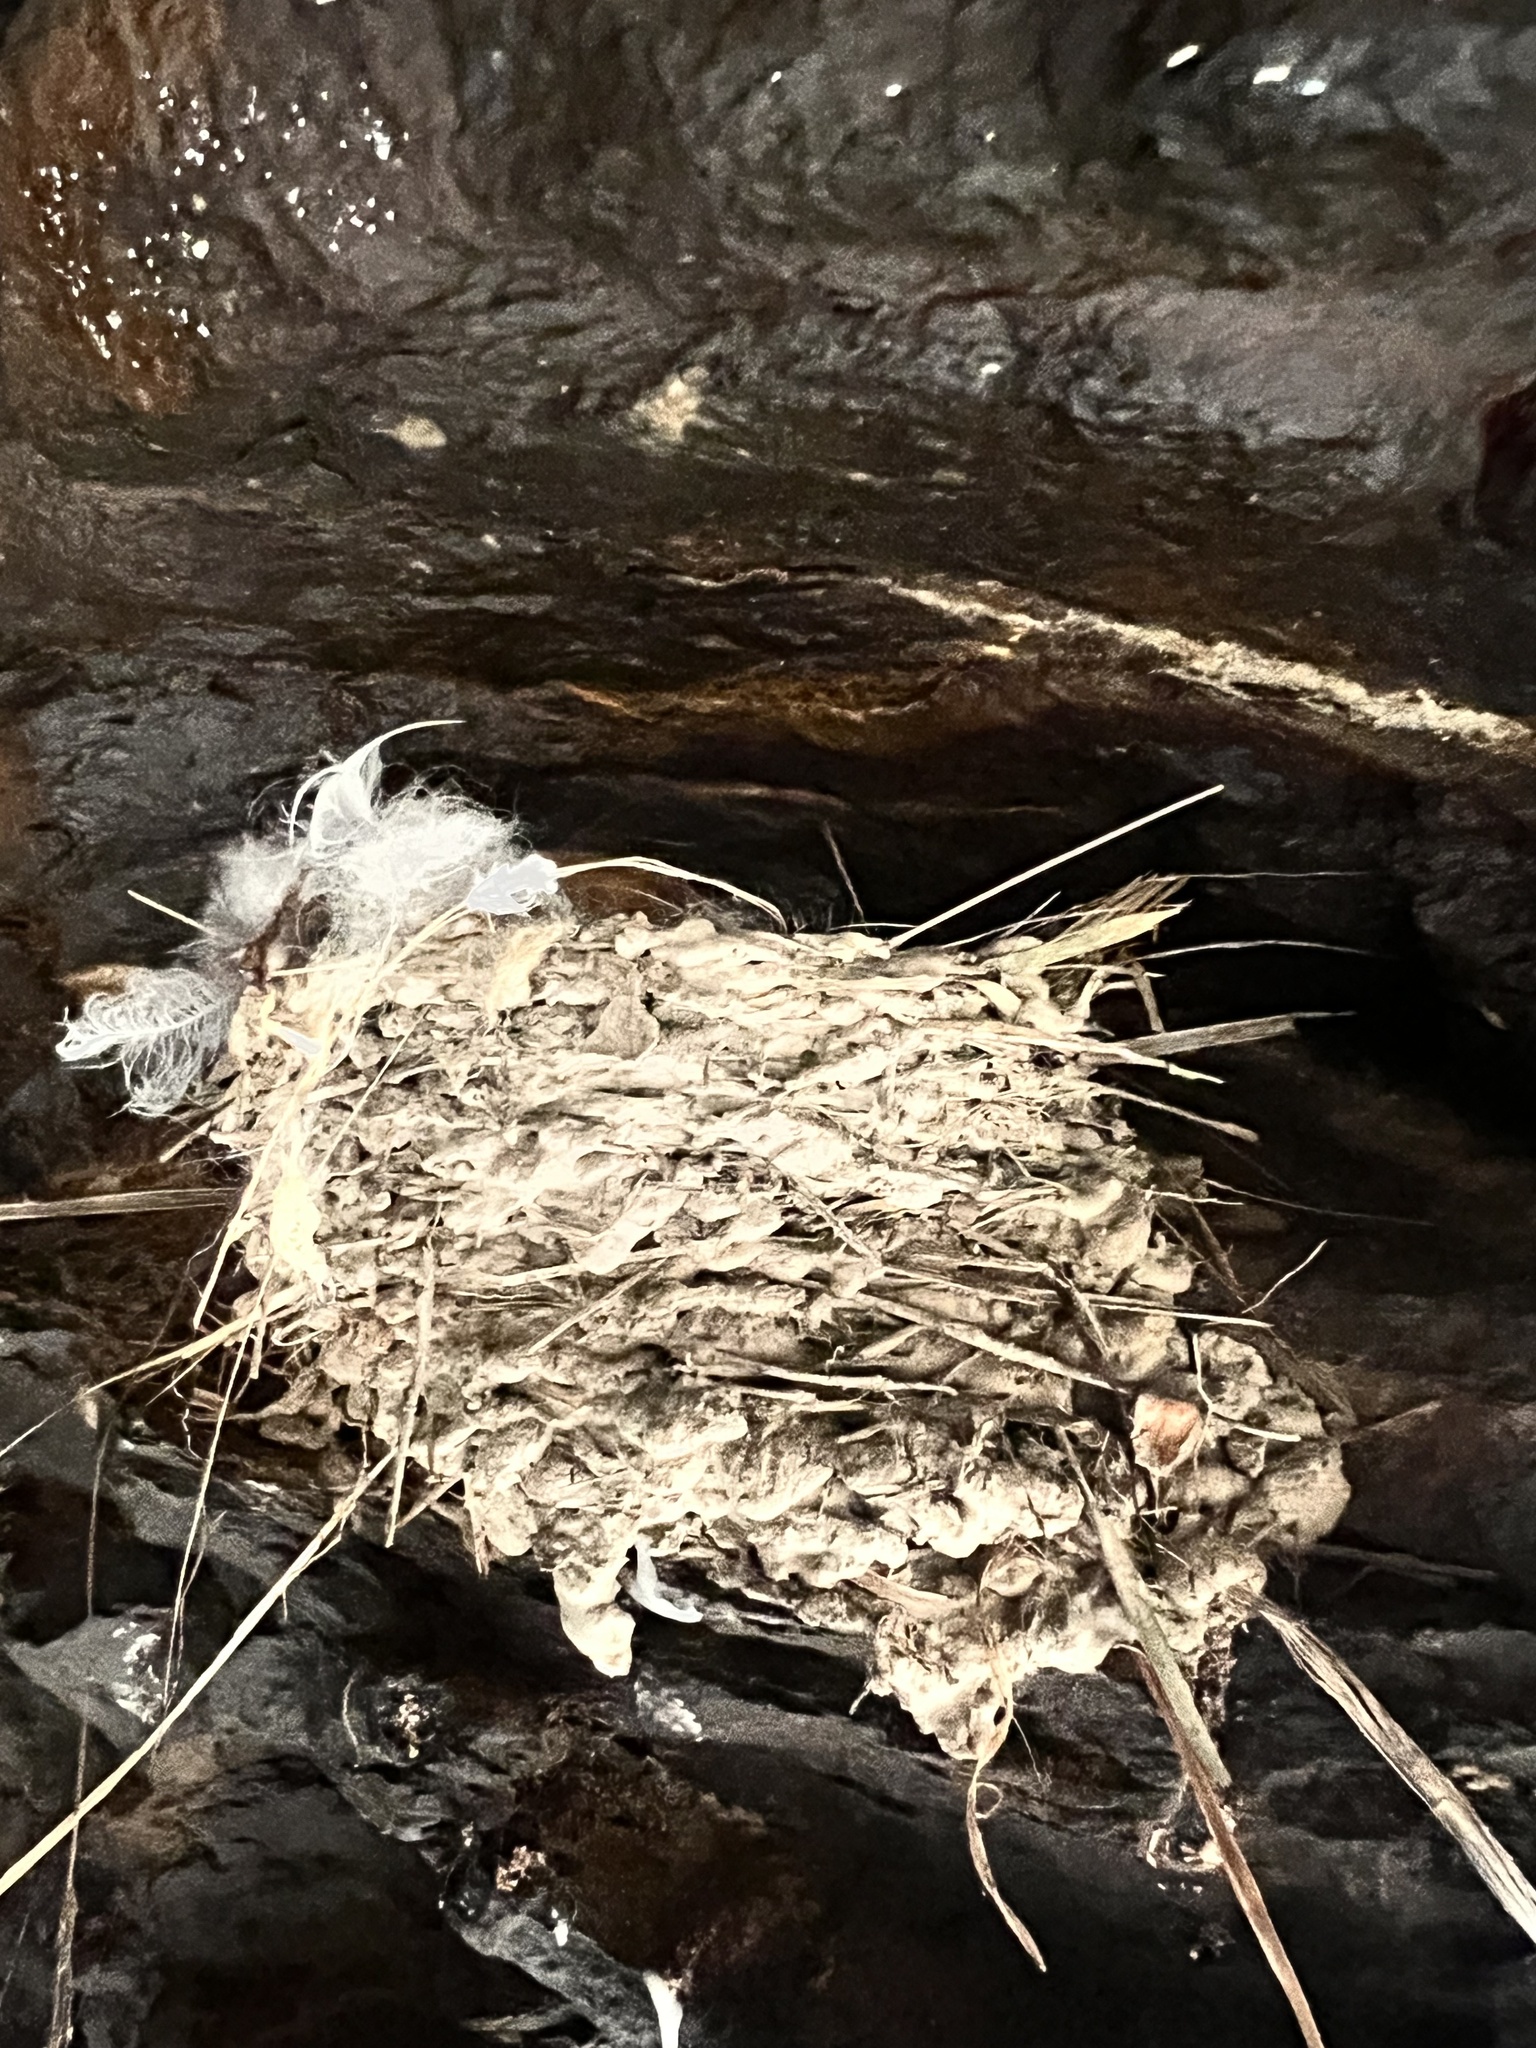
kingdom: Animalia
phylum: Chordata
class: Aves
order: Passeriformes
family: Hirundinidae
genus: Hirundo
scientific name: Hirundo neoxena
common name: Welcome swallow
